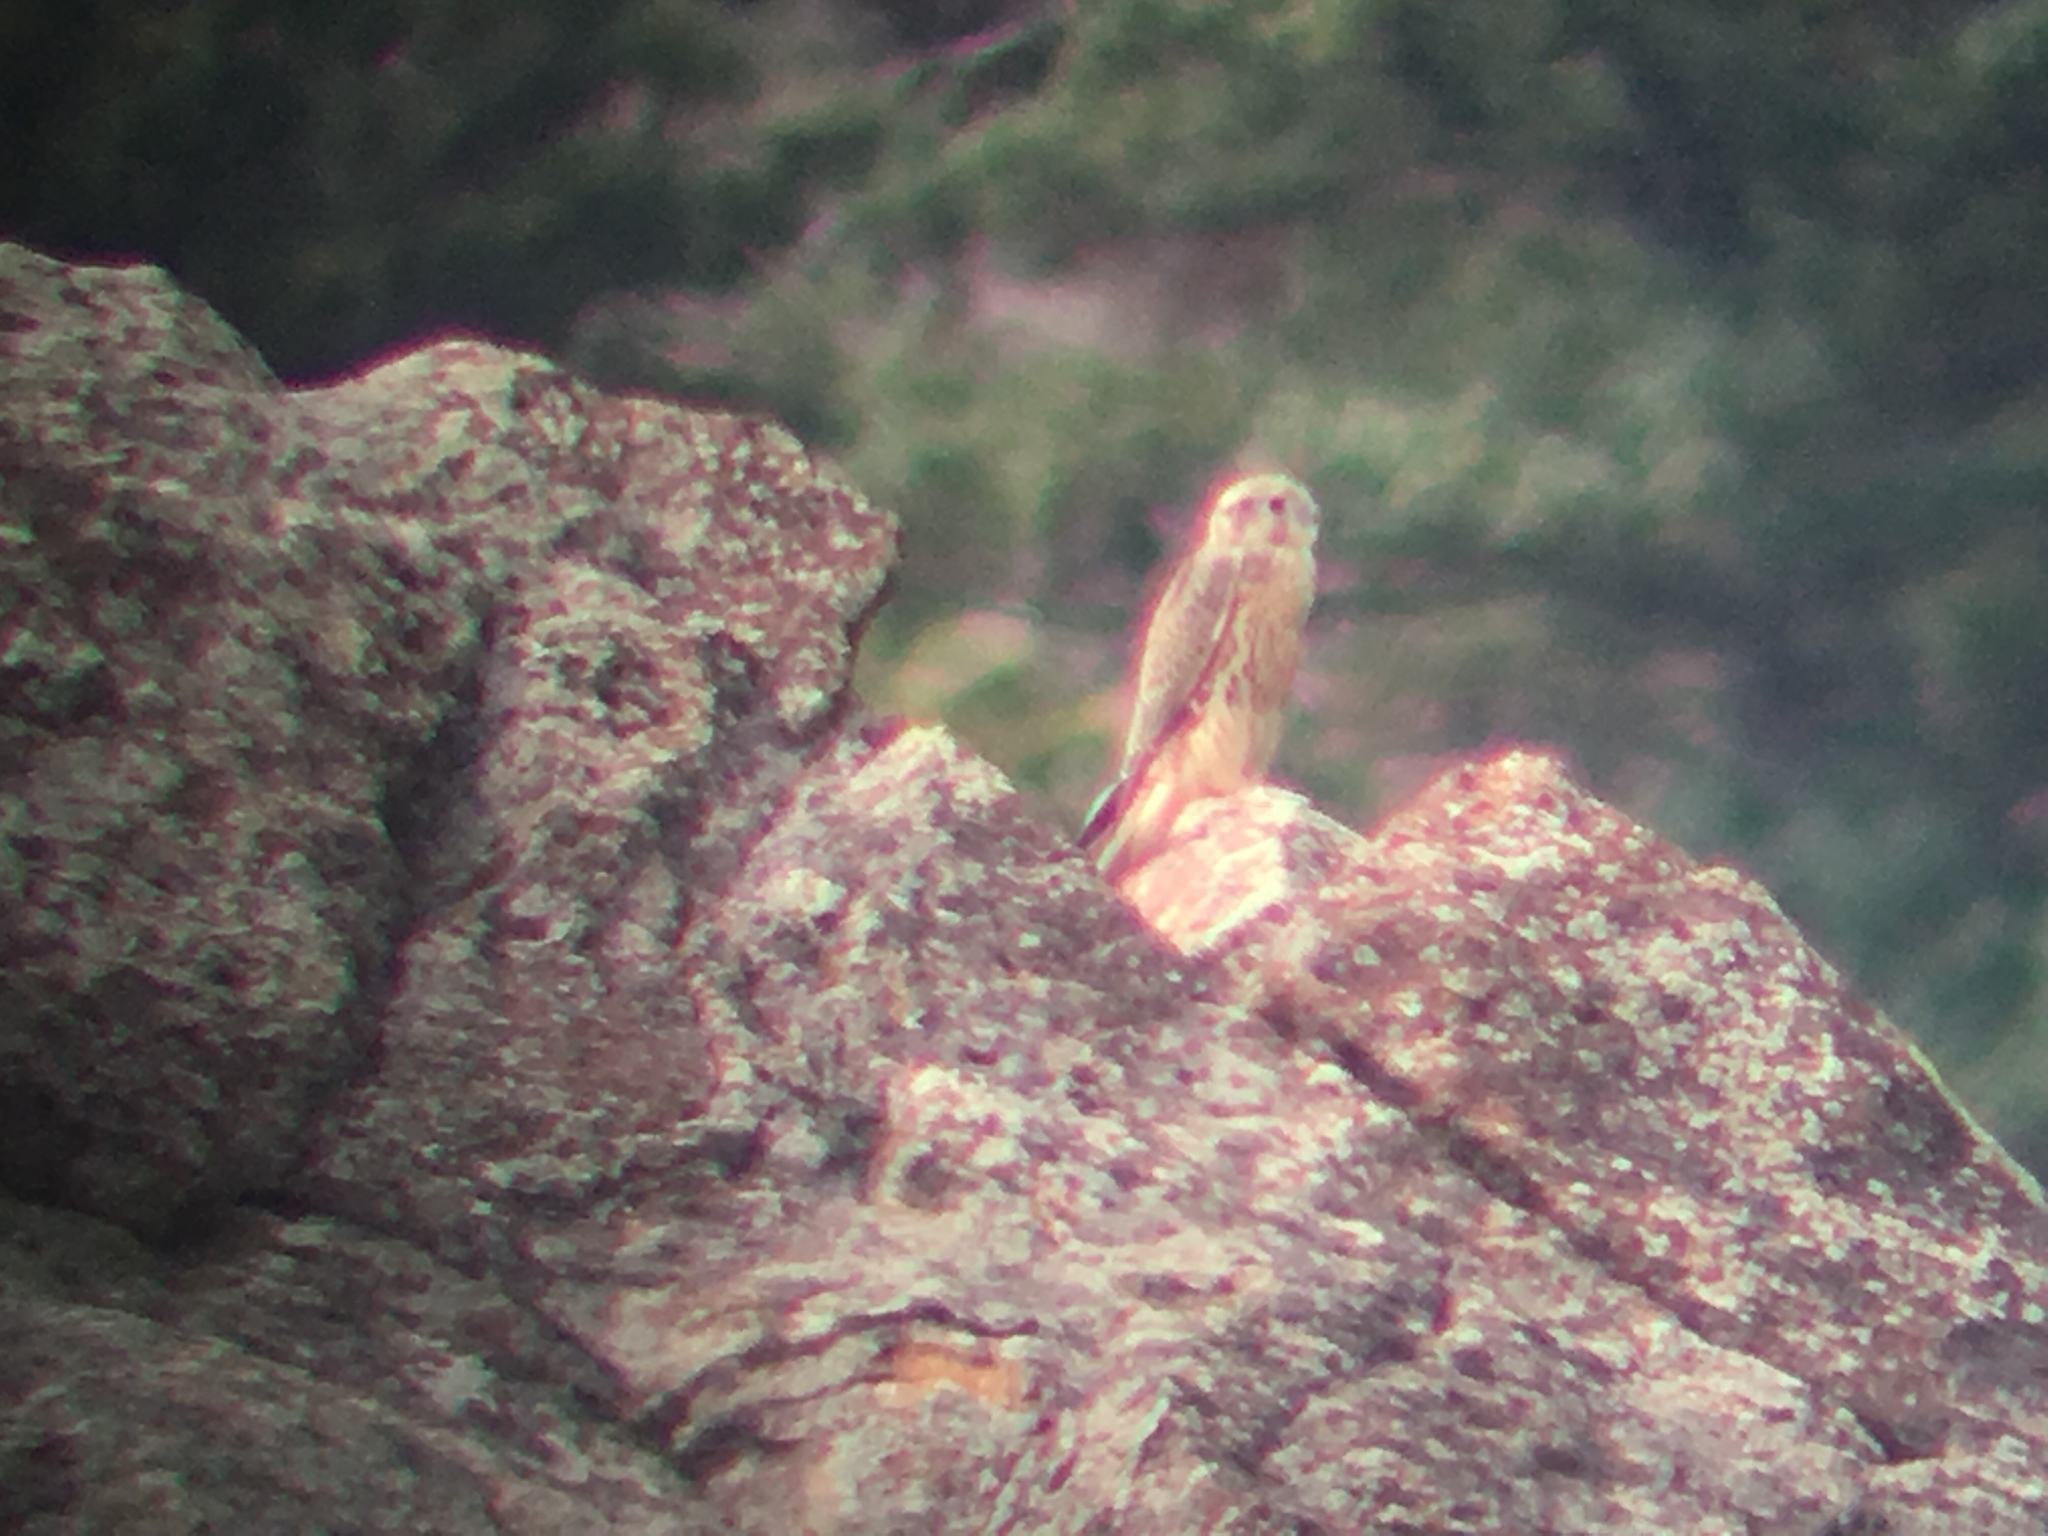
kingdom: Animalia
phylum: Chordata
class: Aves
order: Falconiformes
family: Falconidae
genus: Falco
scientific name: Falco mexicanus
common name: Prairie falcon
